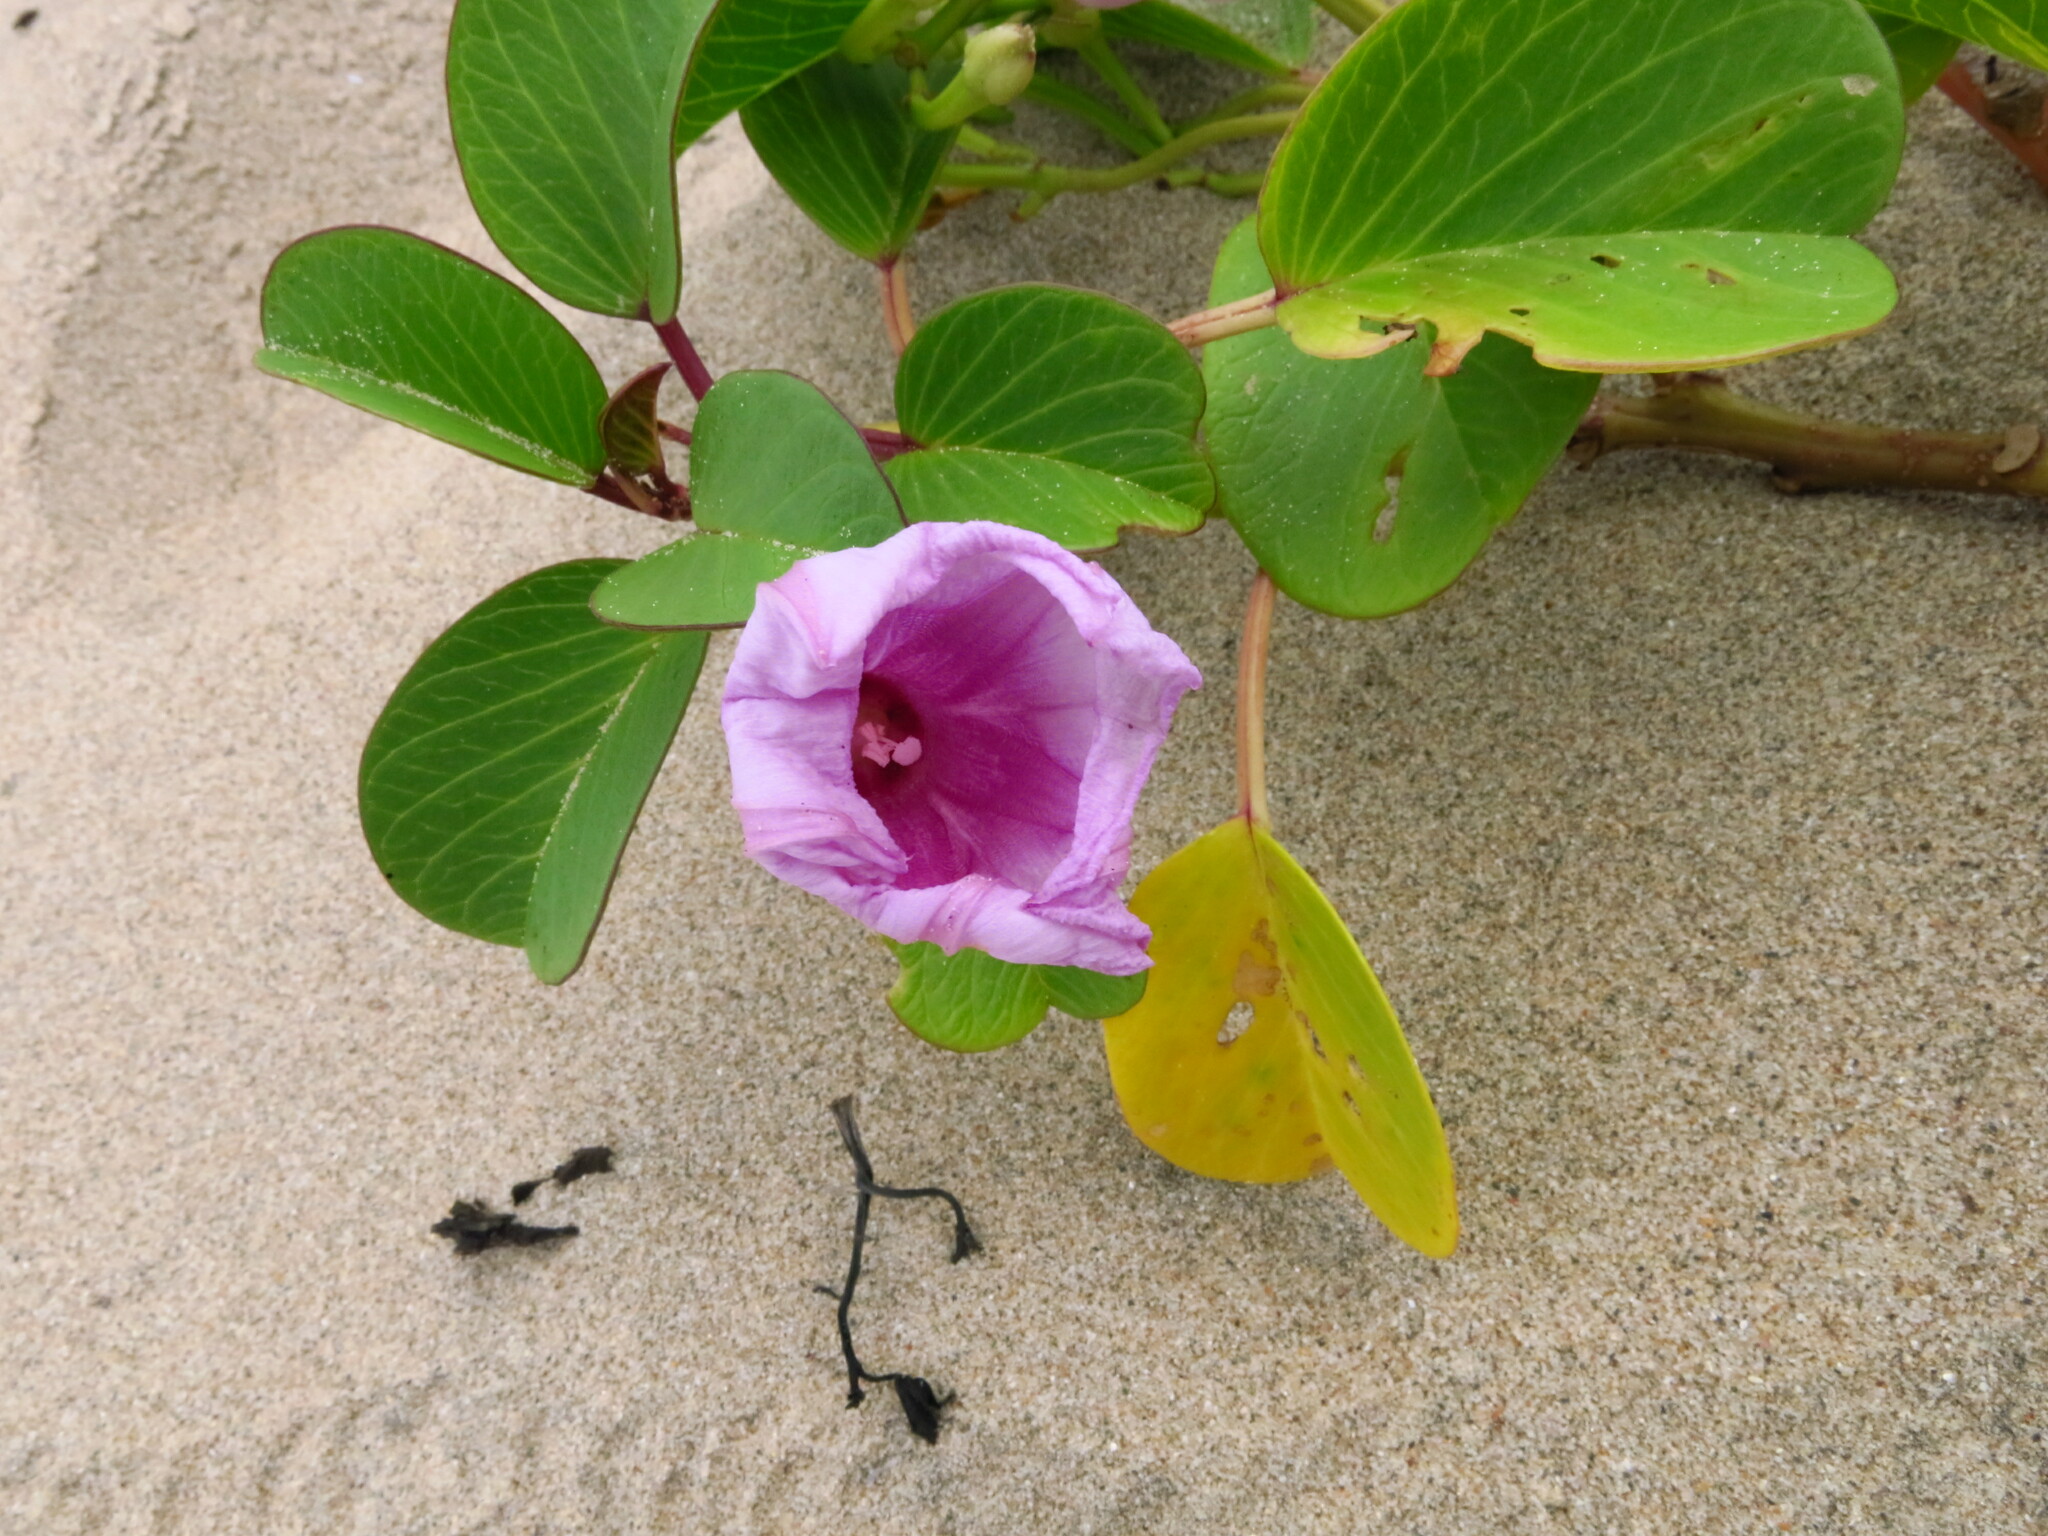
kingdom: Plantae
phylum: Tracheophyta
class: Magnoliopsida
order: Solanales
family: Convolvulaceae
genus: Ipomoea
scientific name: Ipomoea pes-caprae
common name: Beach morning glory
